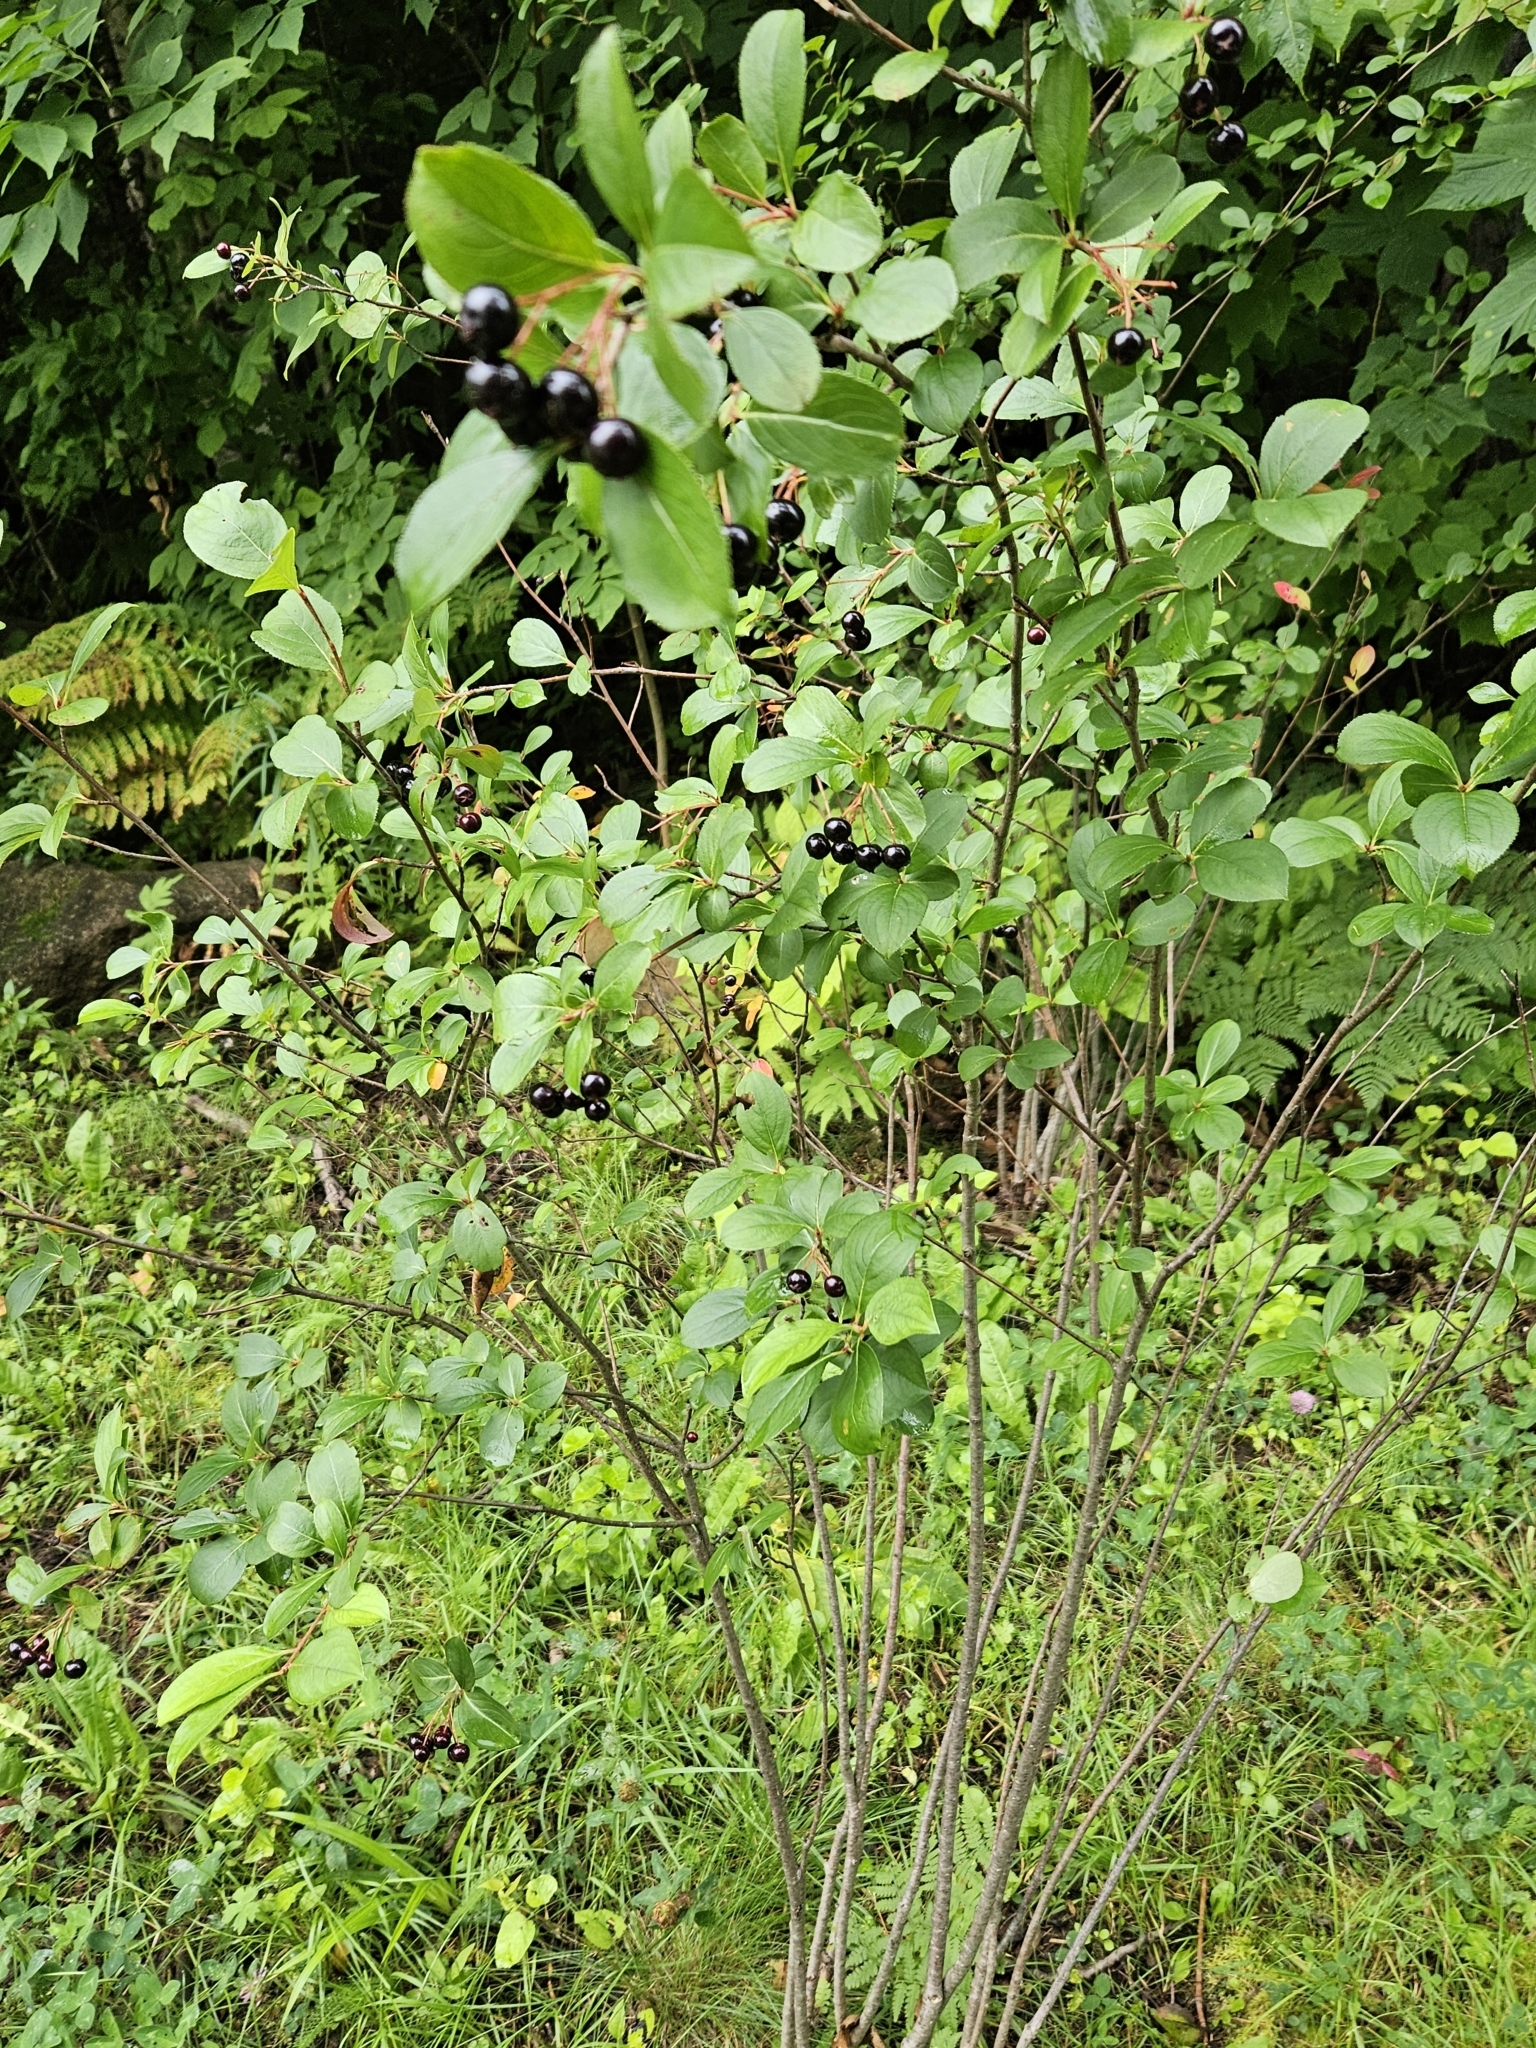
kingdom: Plantae
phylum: Tracheophyta
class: Magnoliopsida
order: Rosales
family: Rosaceae
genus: Aronia
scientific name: Aronia melanocarpa
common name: Black chokeberry
